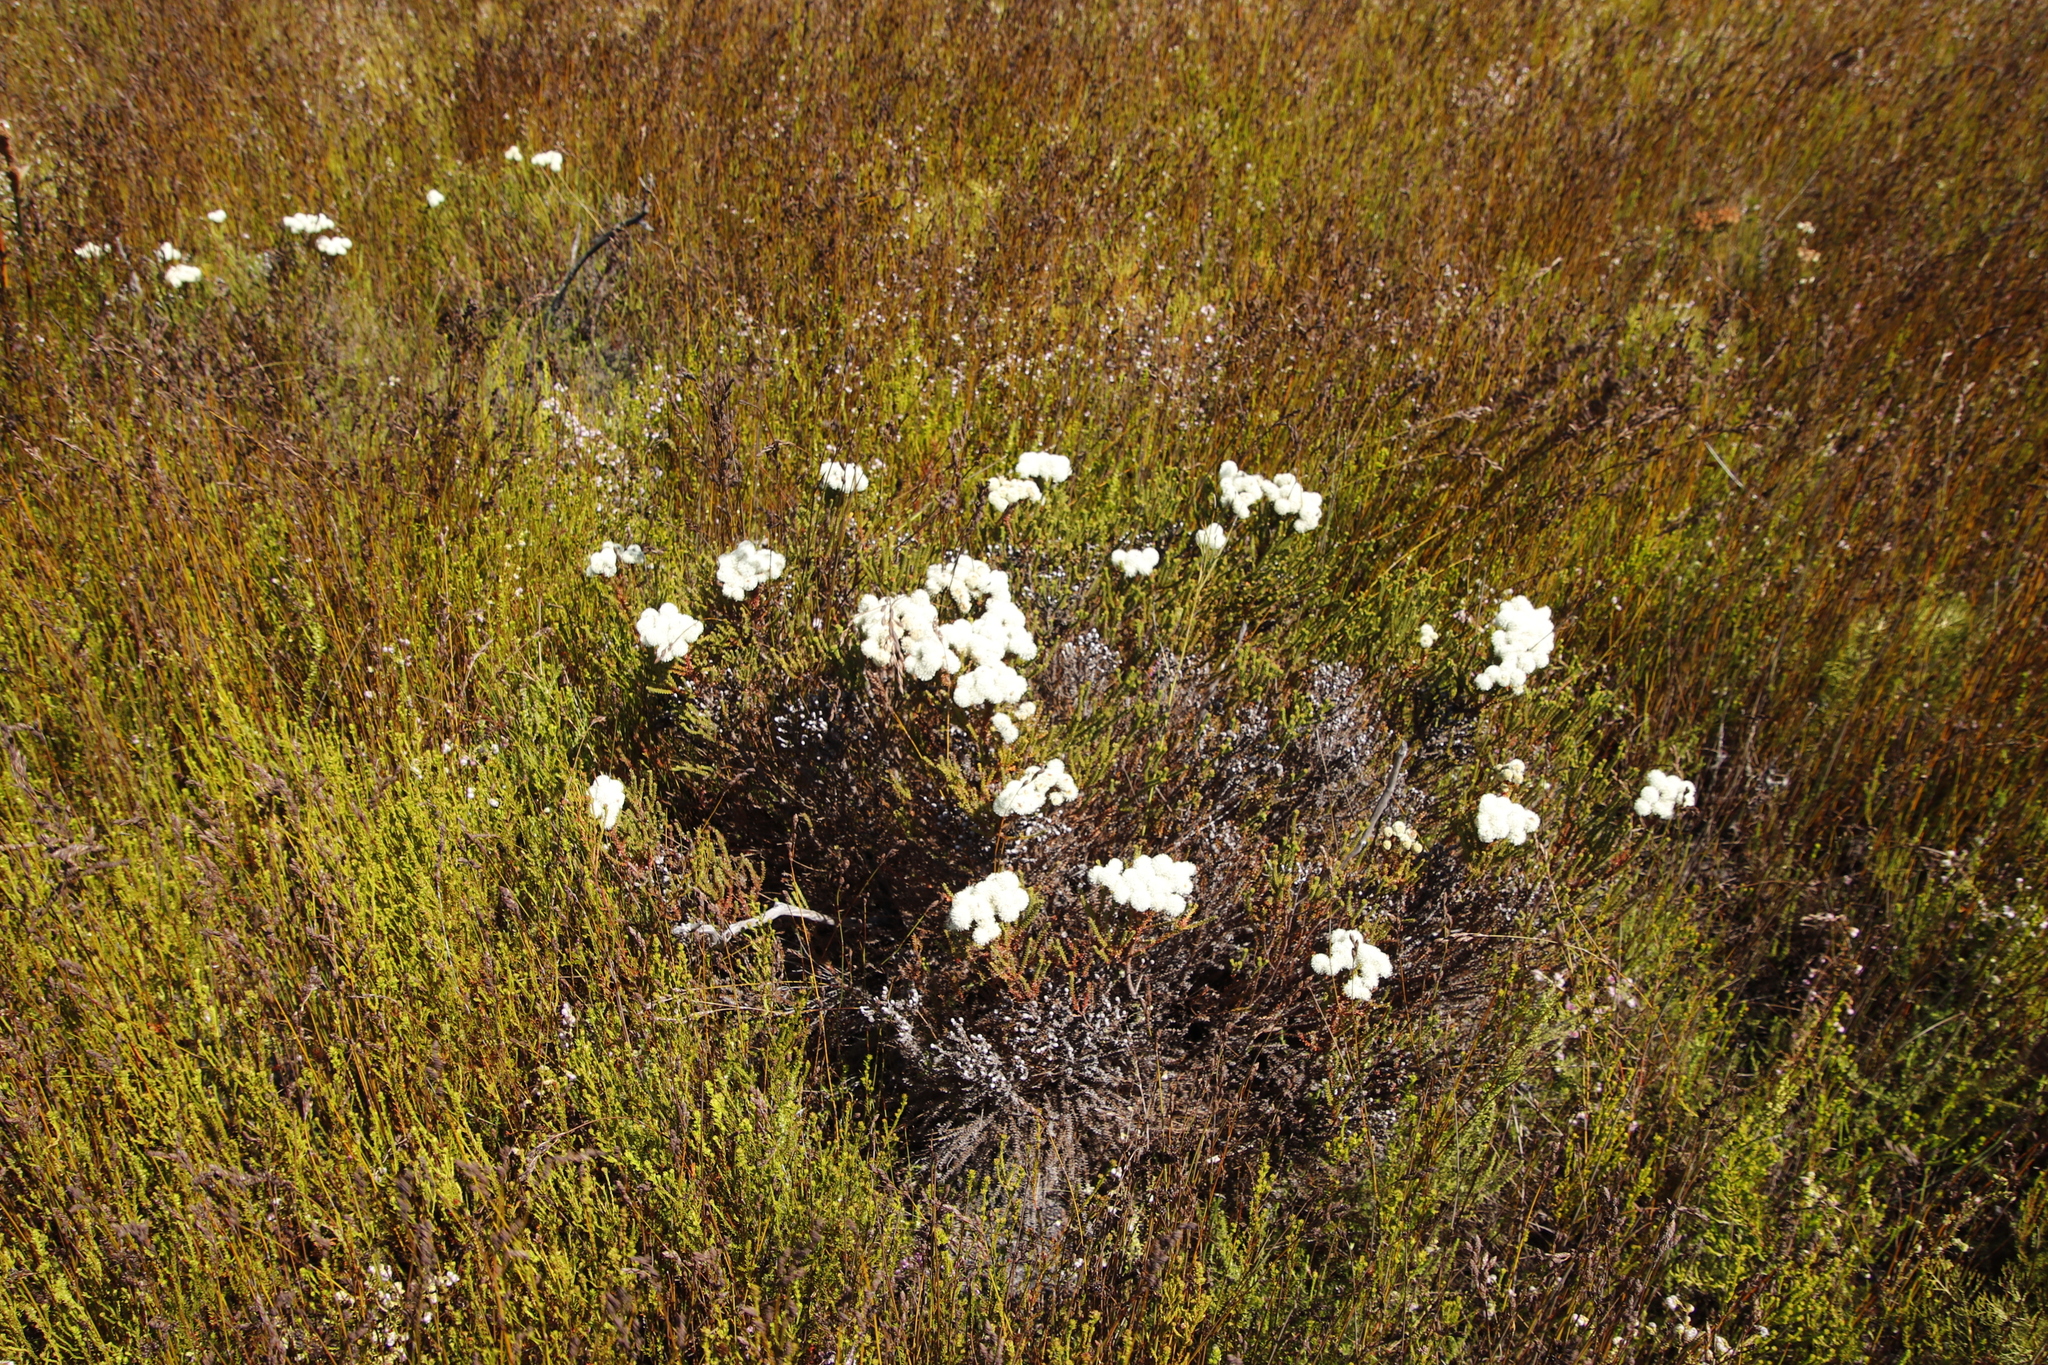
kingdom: Plantae
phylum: Tracheophyta
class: Magnoliopsida
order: Bruniales
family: Bruniaceae
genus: Berzelia
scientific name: Berzelia abrotanoides
